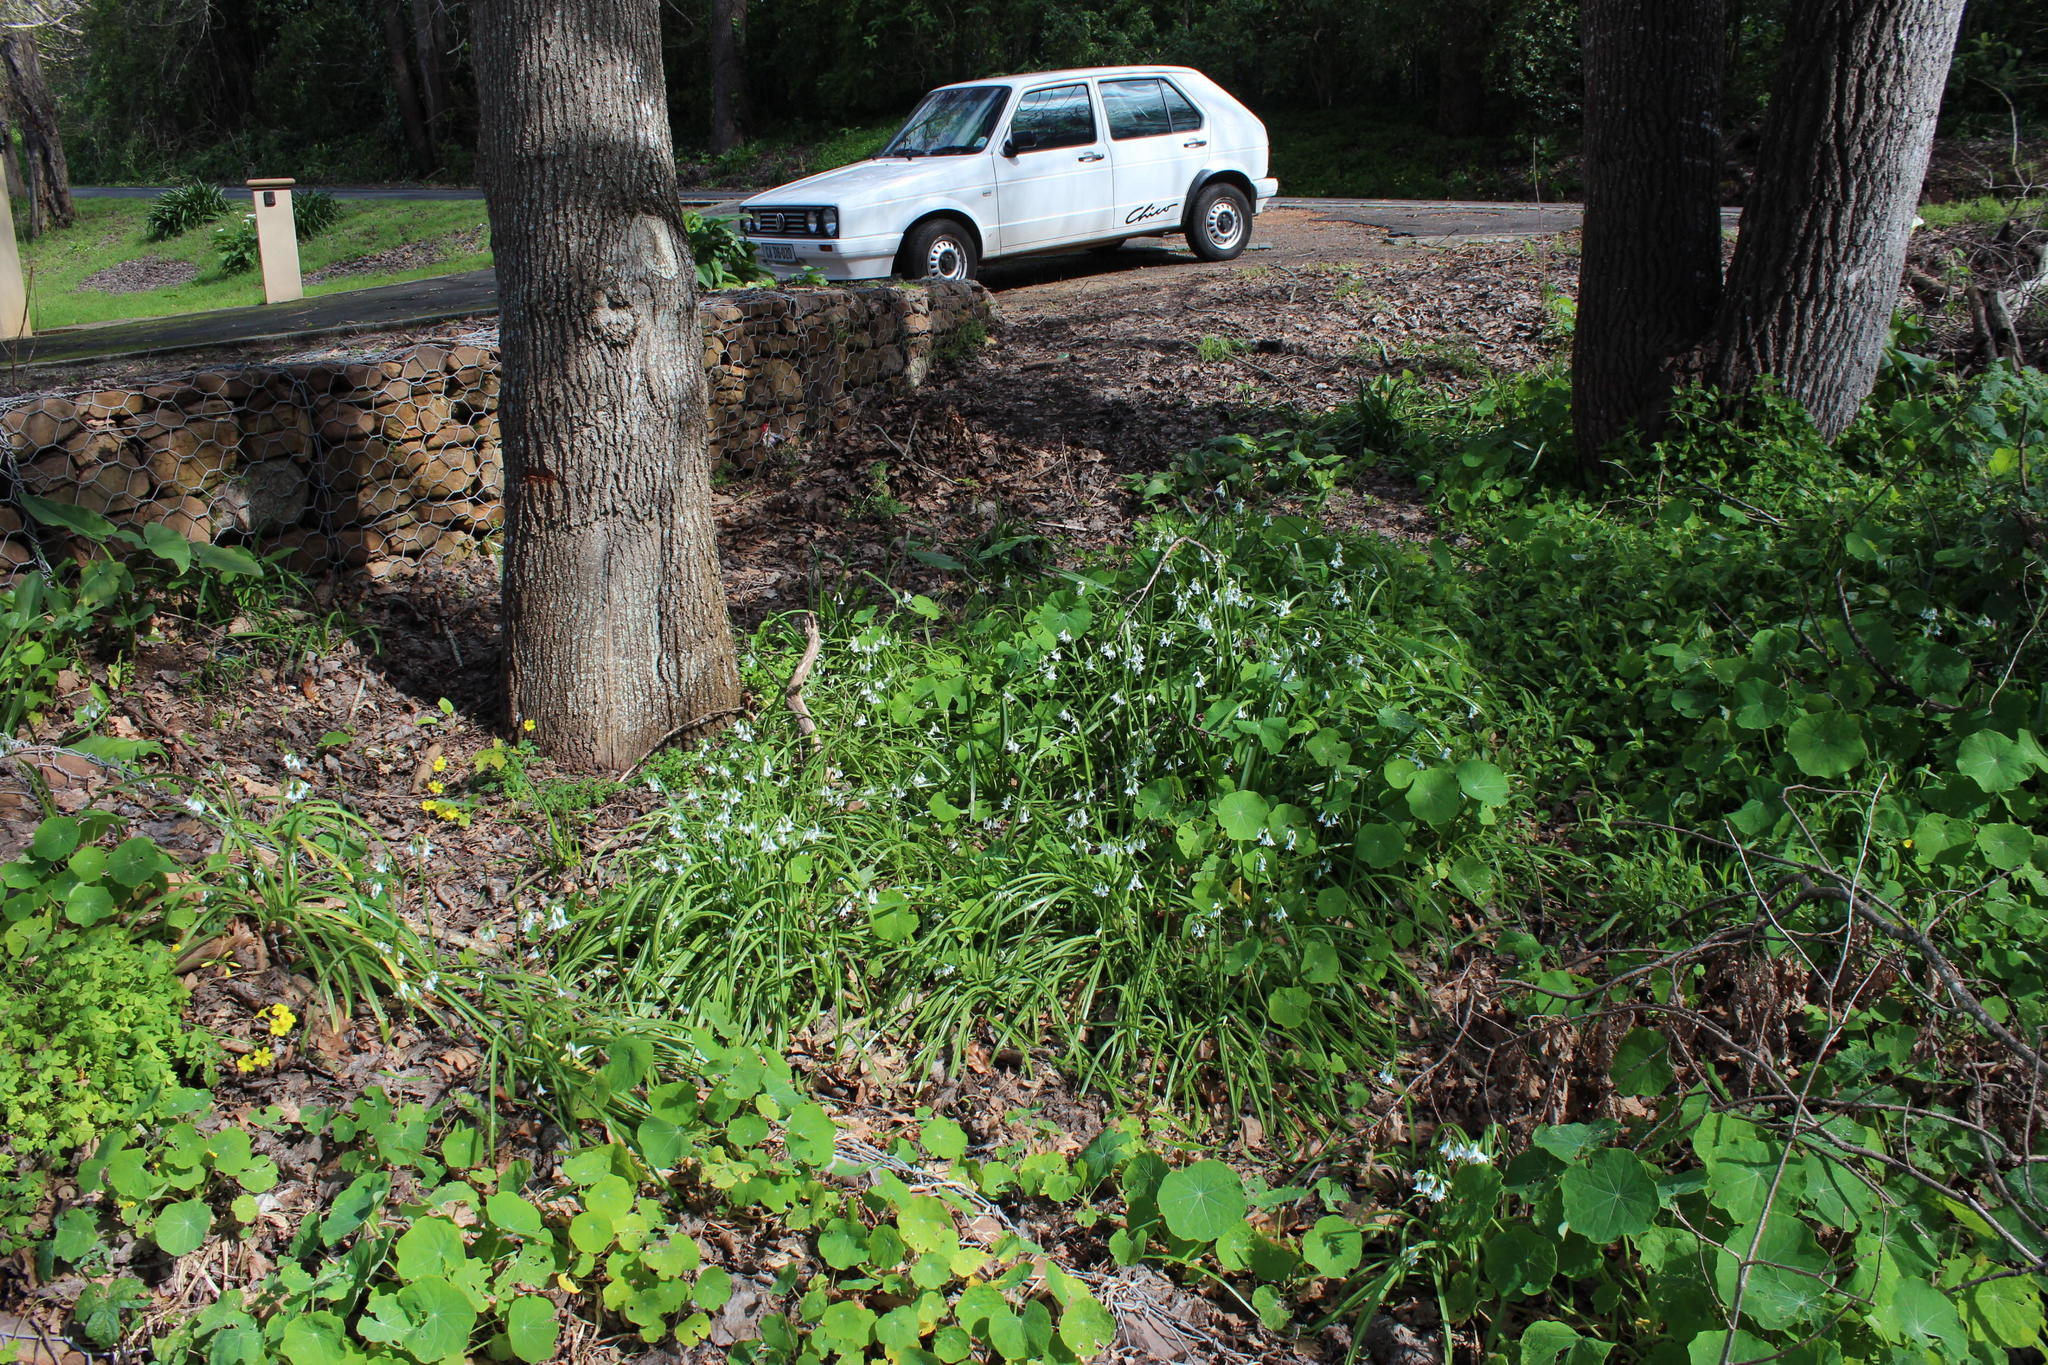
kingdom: Plantae
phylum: Tracheophyta
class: Liliopsida
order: Asparagales
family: Amaryllidaceae
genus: Allium
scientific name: Allium triquetrum
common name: Three-cornered garlic
